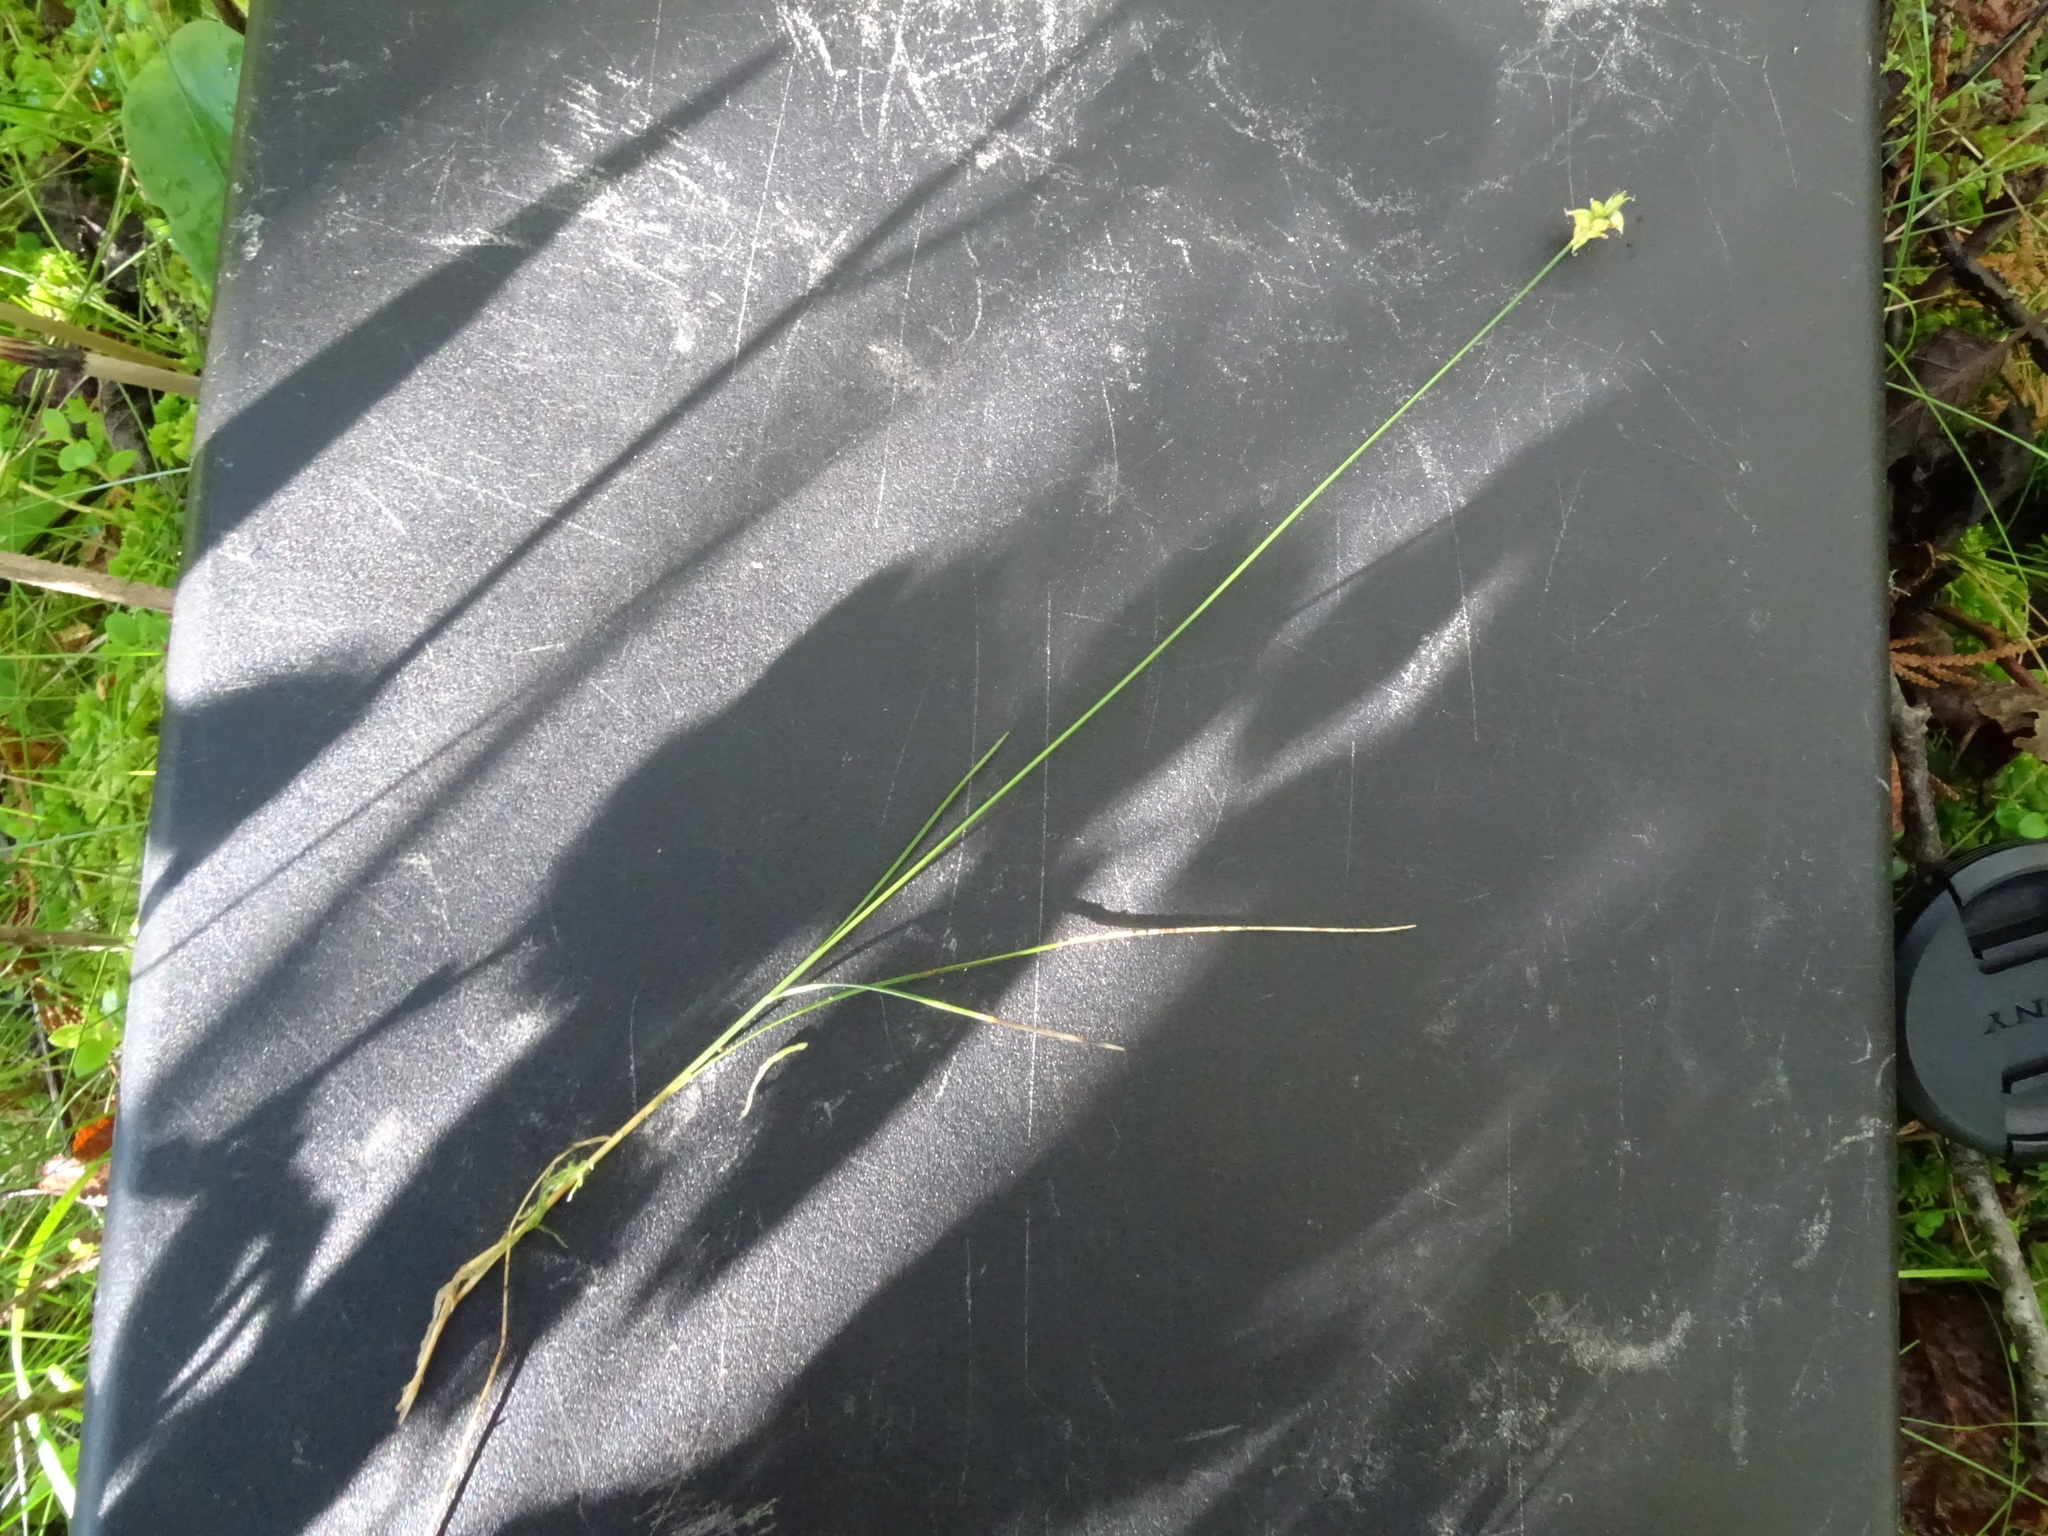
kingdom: Plantae
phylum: Tracheophyta
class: Liliopsida
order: Poales
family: Cyperaceae
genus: Carex
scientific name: Carex alascana
